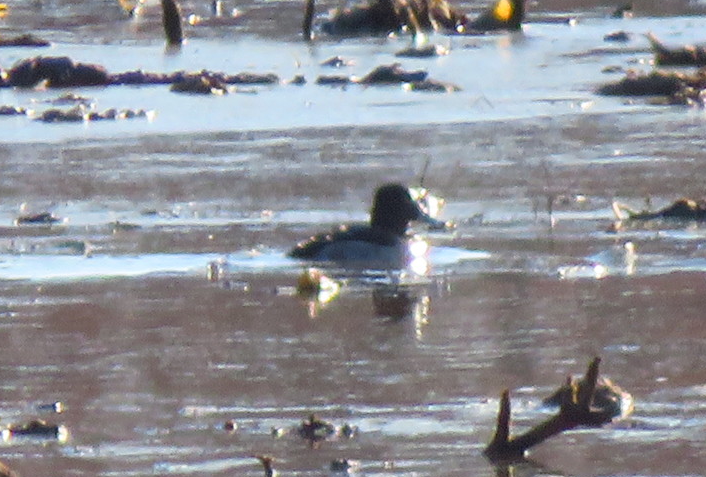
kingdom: Animalia
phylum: Chordata
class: Aves
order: Anseriformes
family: Anatidae
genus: Aythya
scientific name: Aythya collaris
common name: Ring-necked duck
